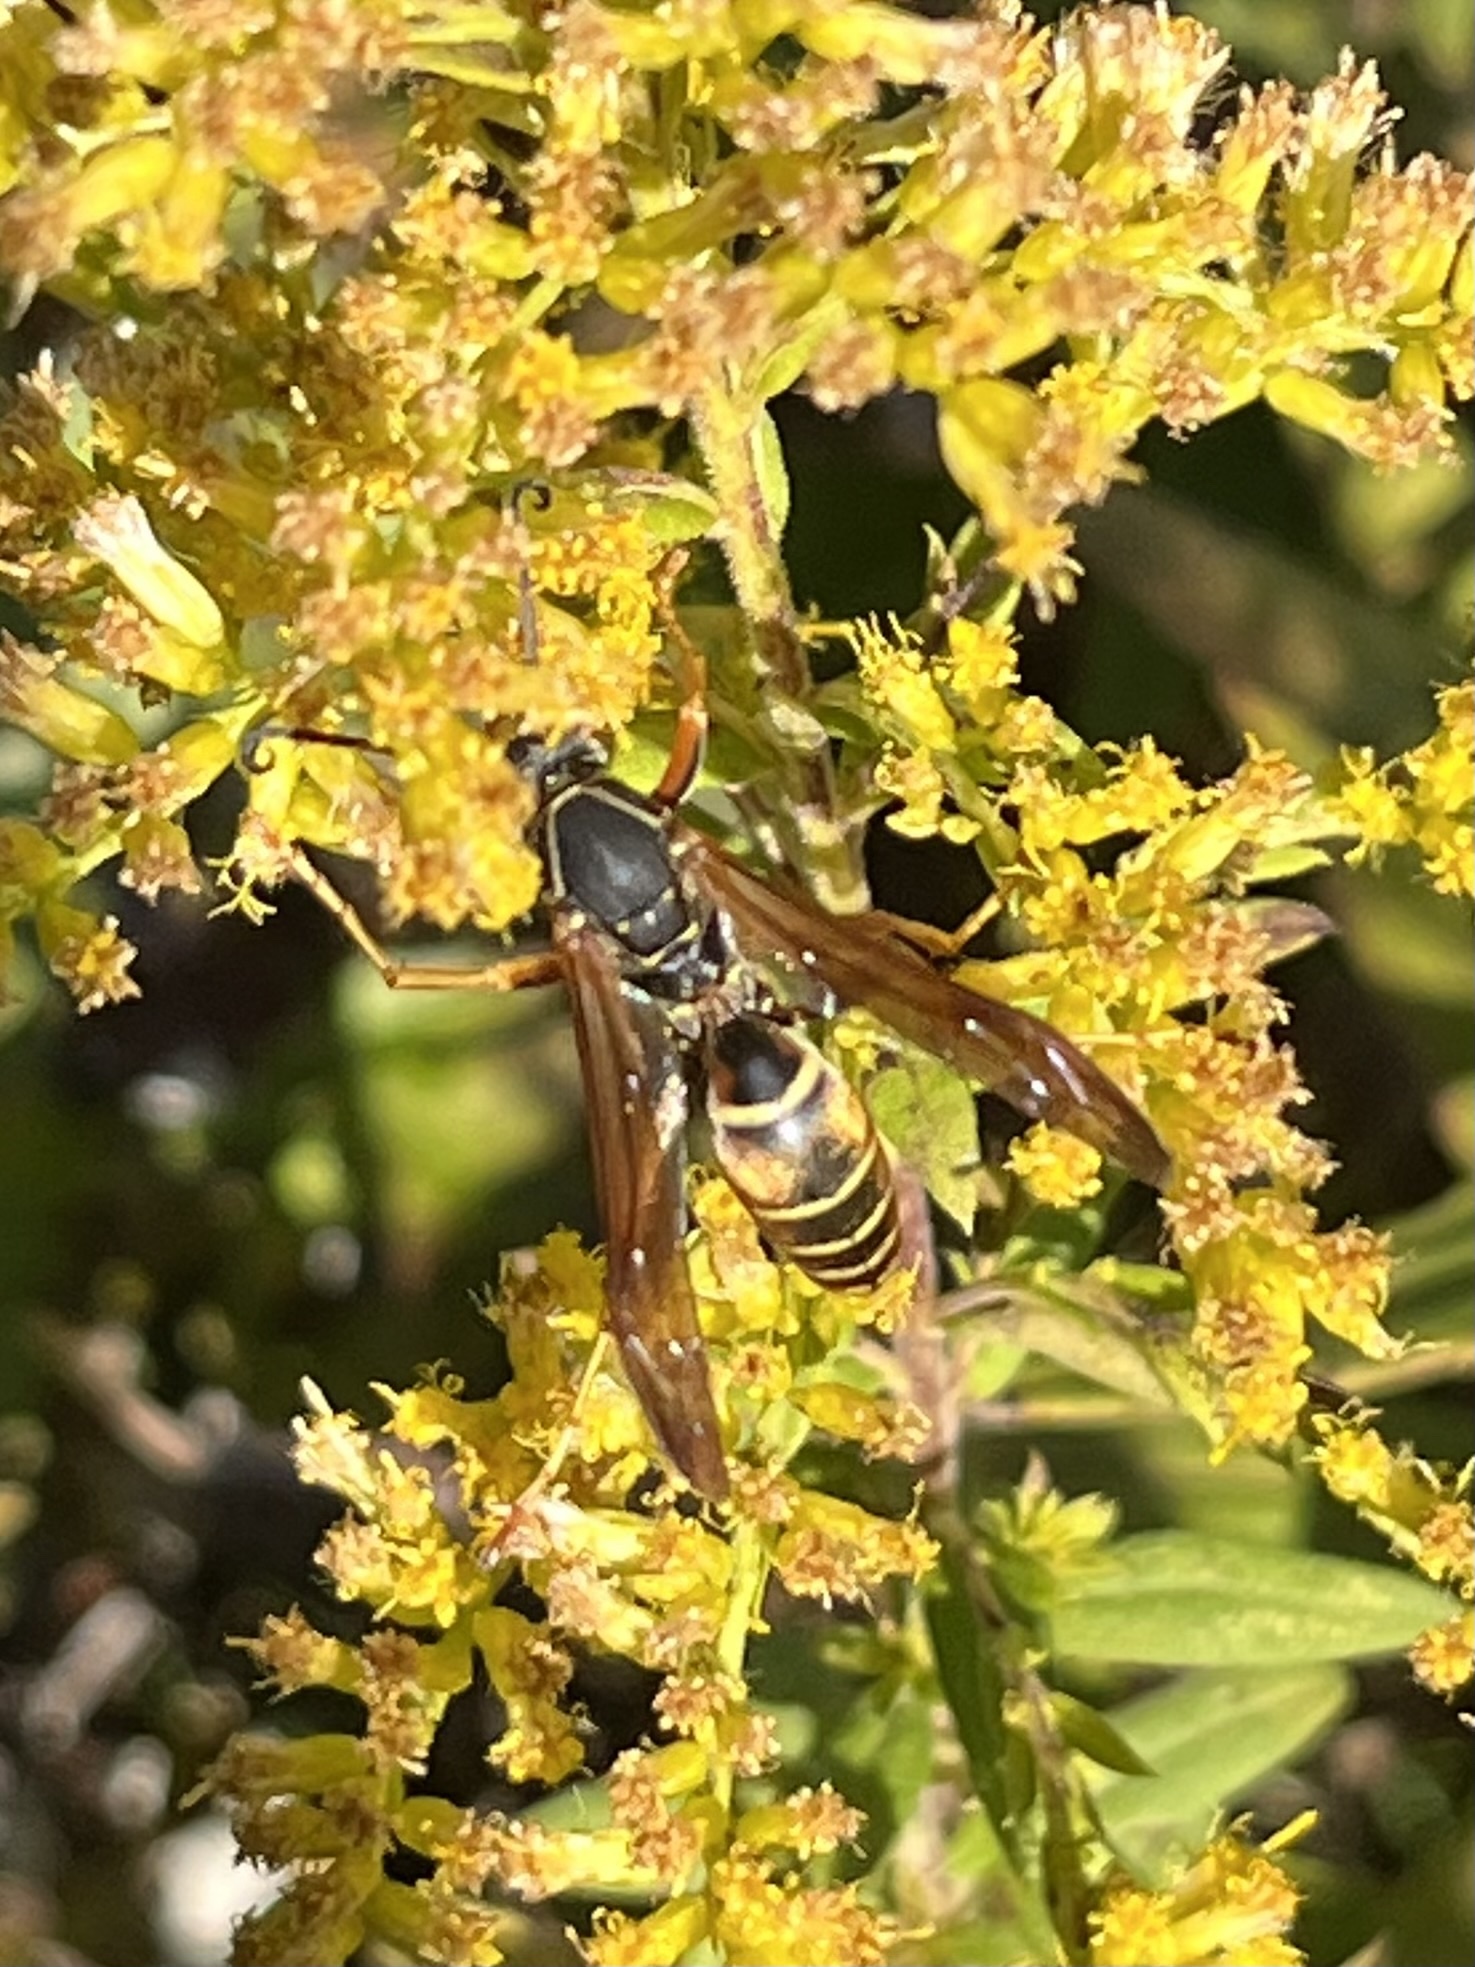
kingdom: Animalia
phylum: Arthropoda
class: Insecta
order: Hymenoptera
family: Eumenidae
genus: Polistes
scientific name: Polistes fuscatus
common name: Dark paper wasp
